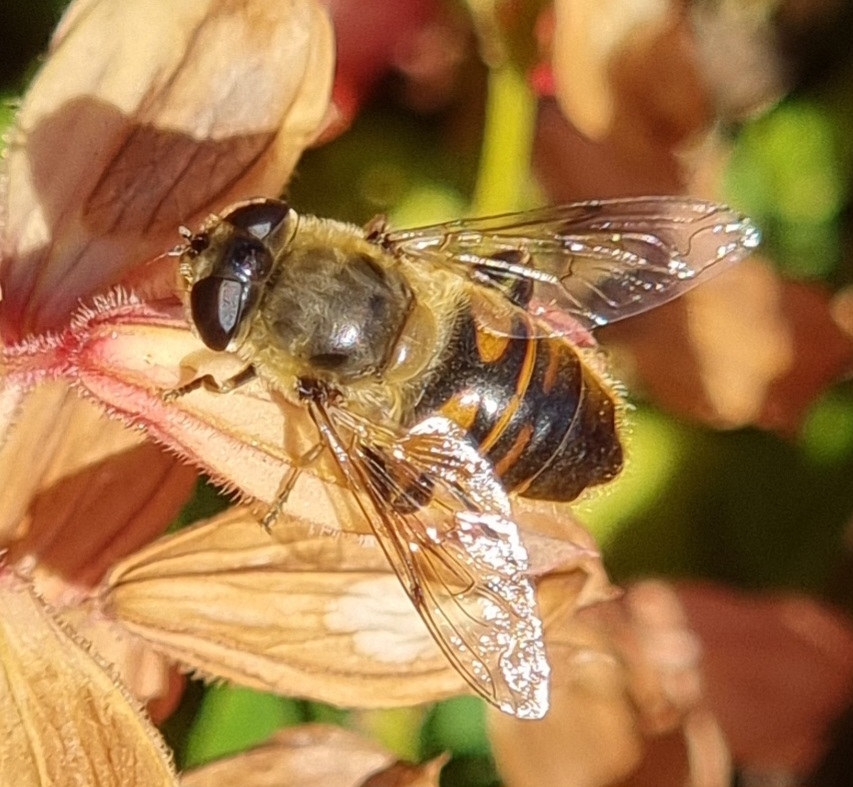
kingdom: Animalia
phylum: Arthropoda
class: Insecta
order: Diptera
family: Syrphidae
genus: Eristalis
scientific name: Eristalis tenax
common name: Drone fly
